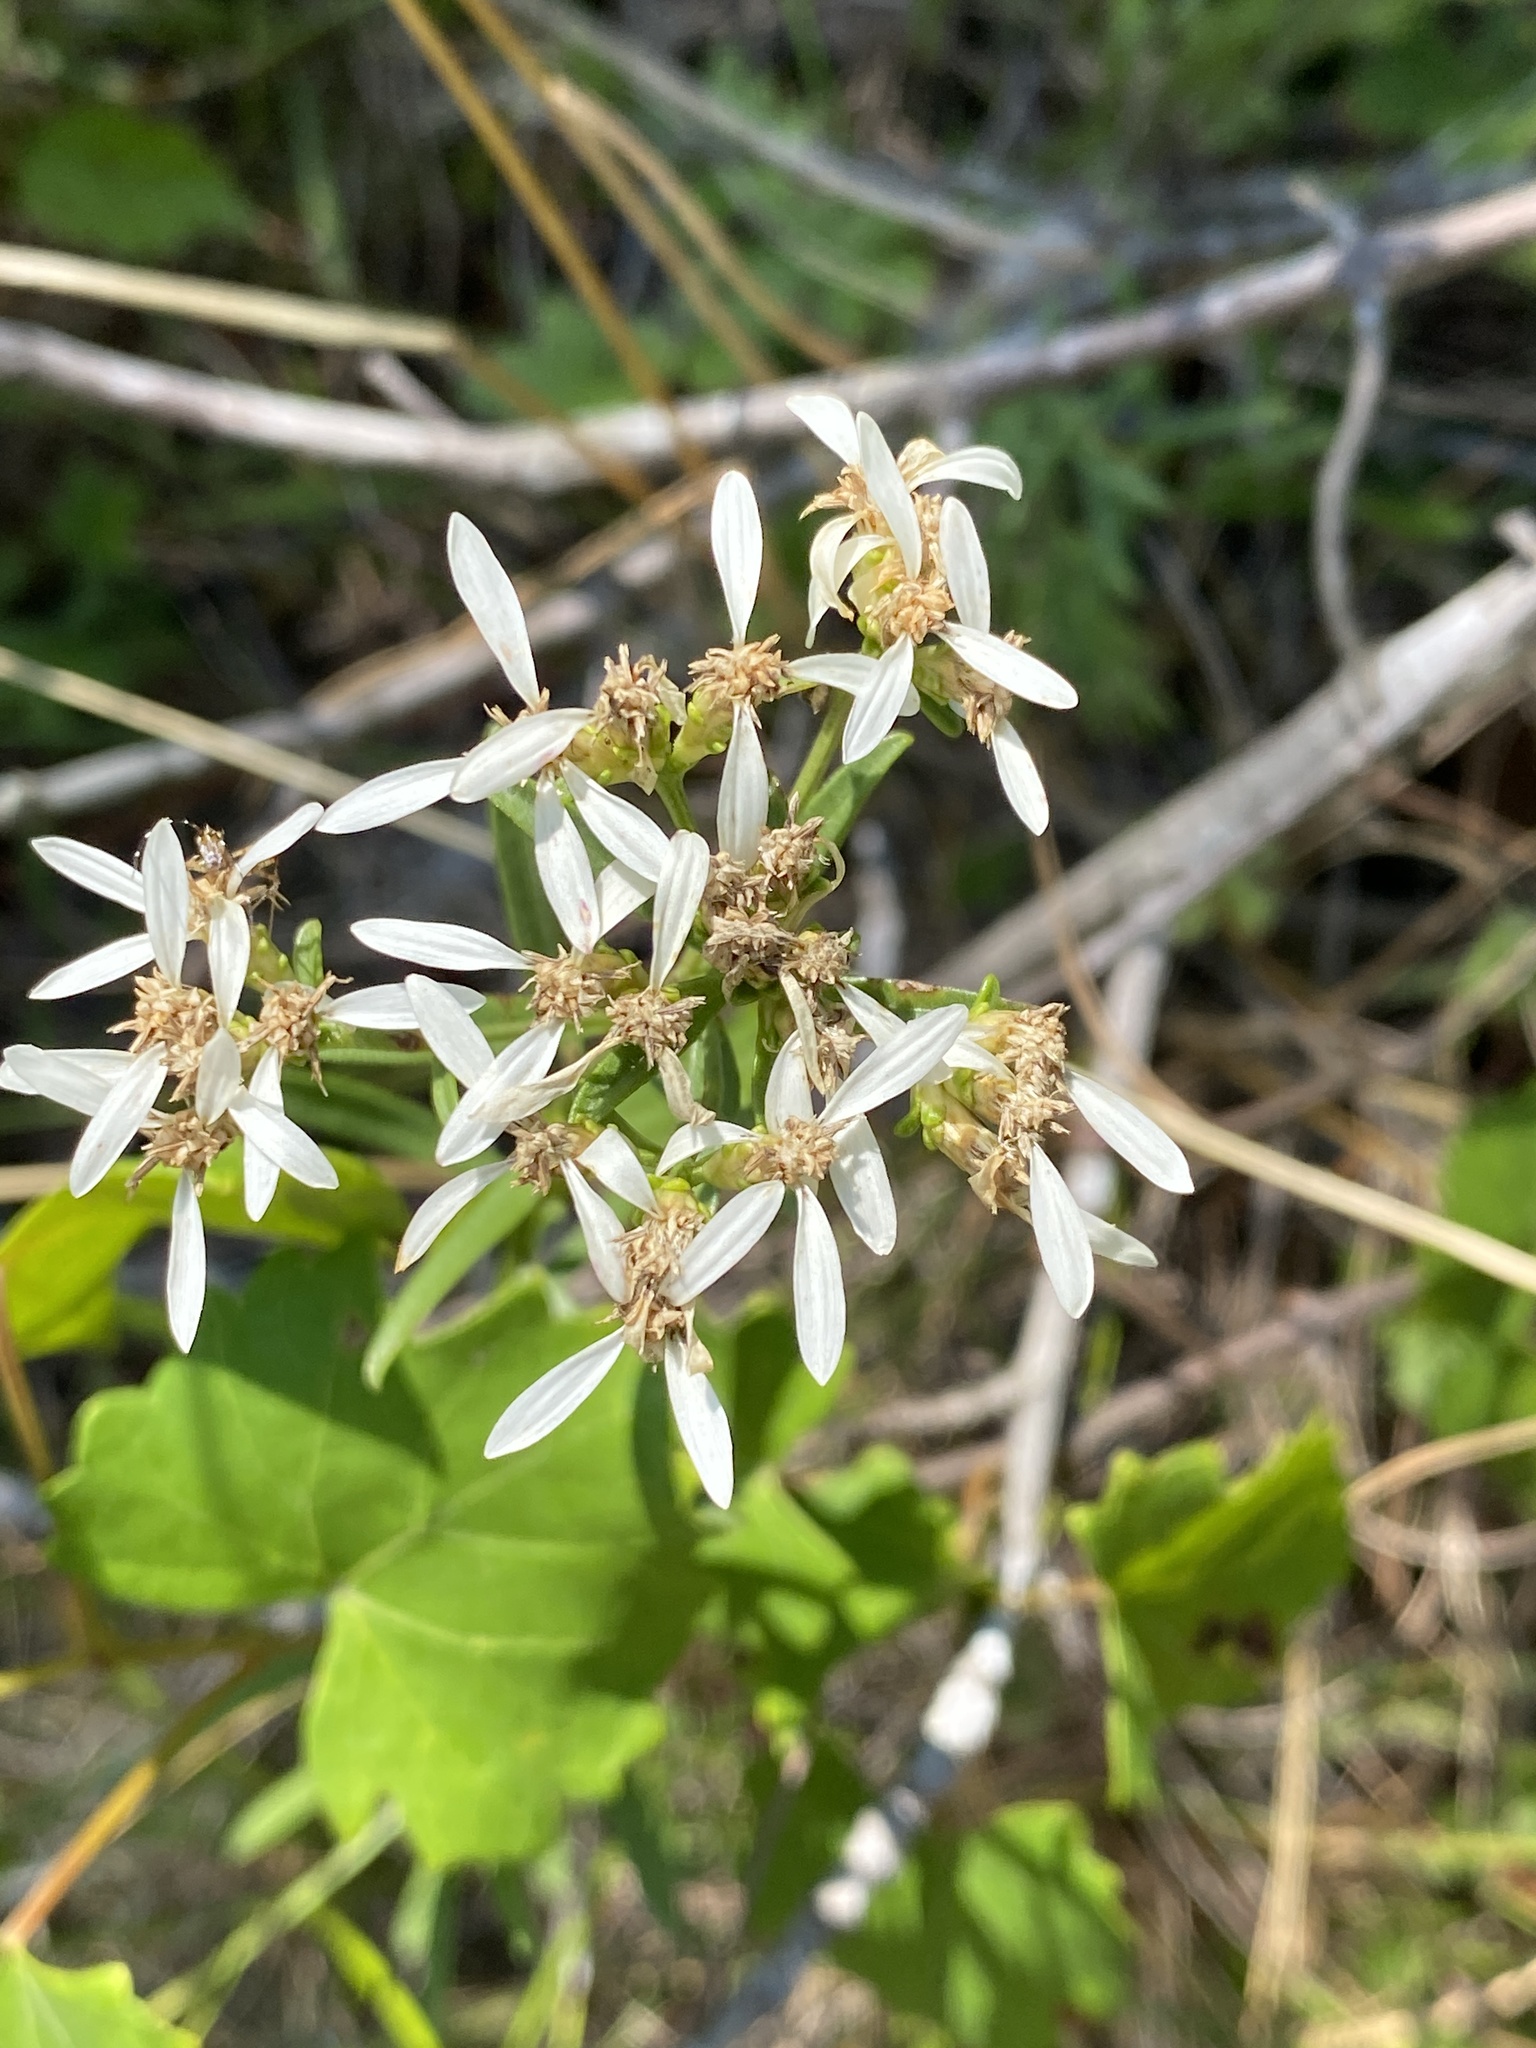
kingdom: Plantae
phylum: Tracheophyta
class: Magnoliopsida
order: Asterales
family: Asteraceae
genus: Sericocarpus
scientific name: Sericocarpus linifolius
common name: Narrow-leaf aster
